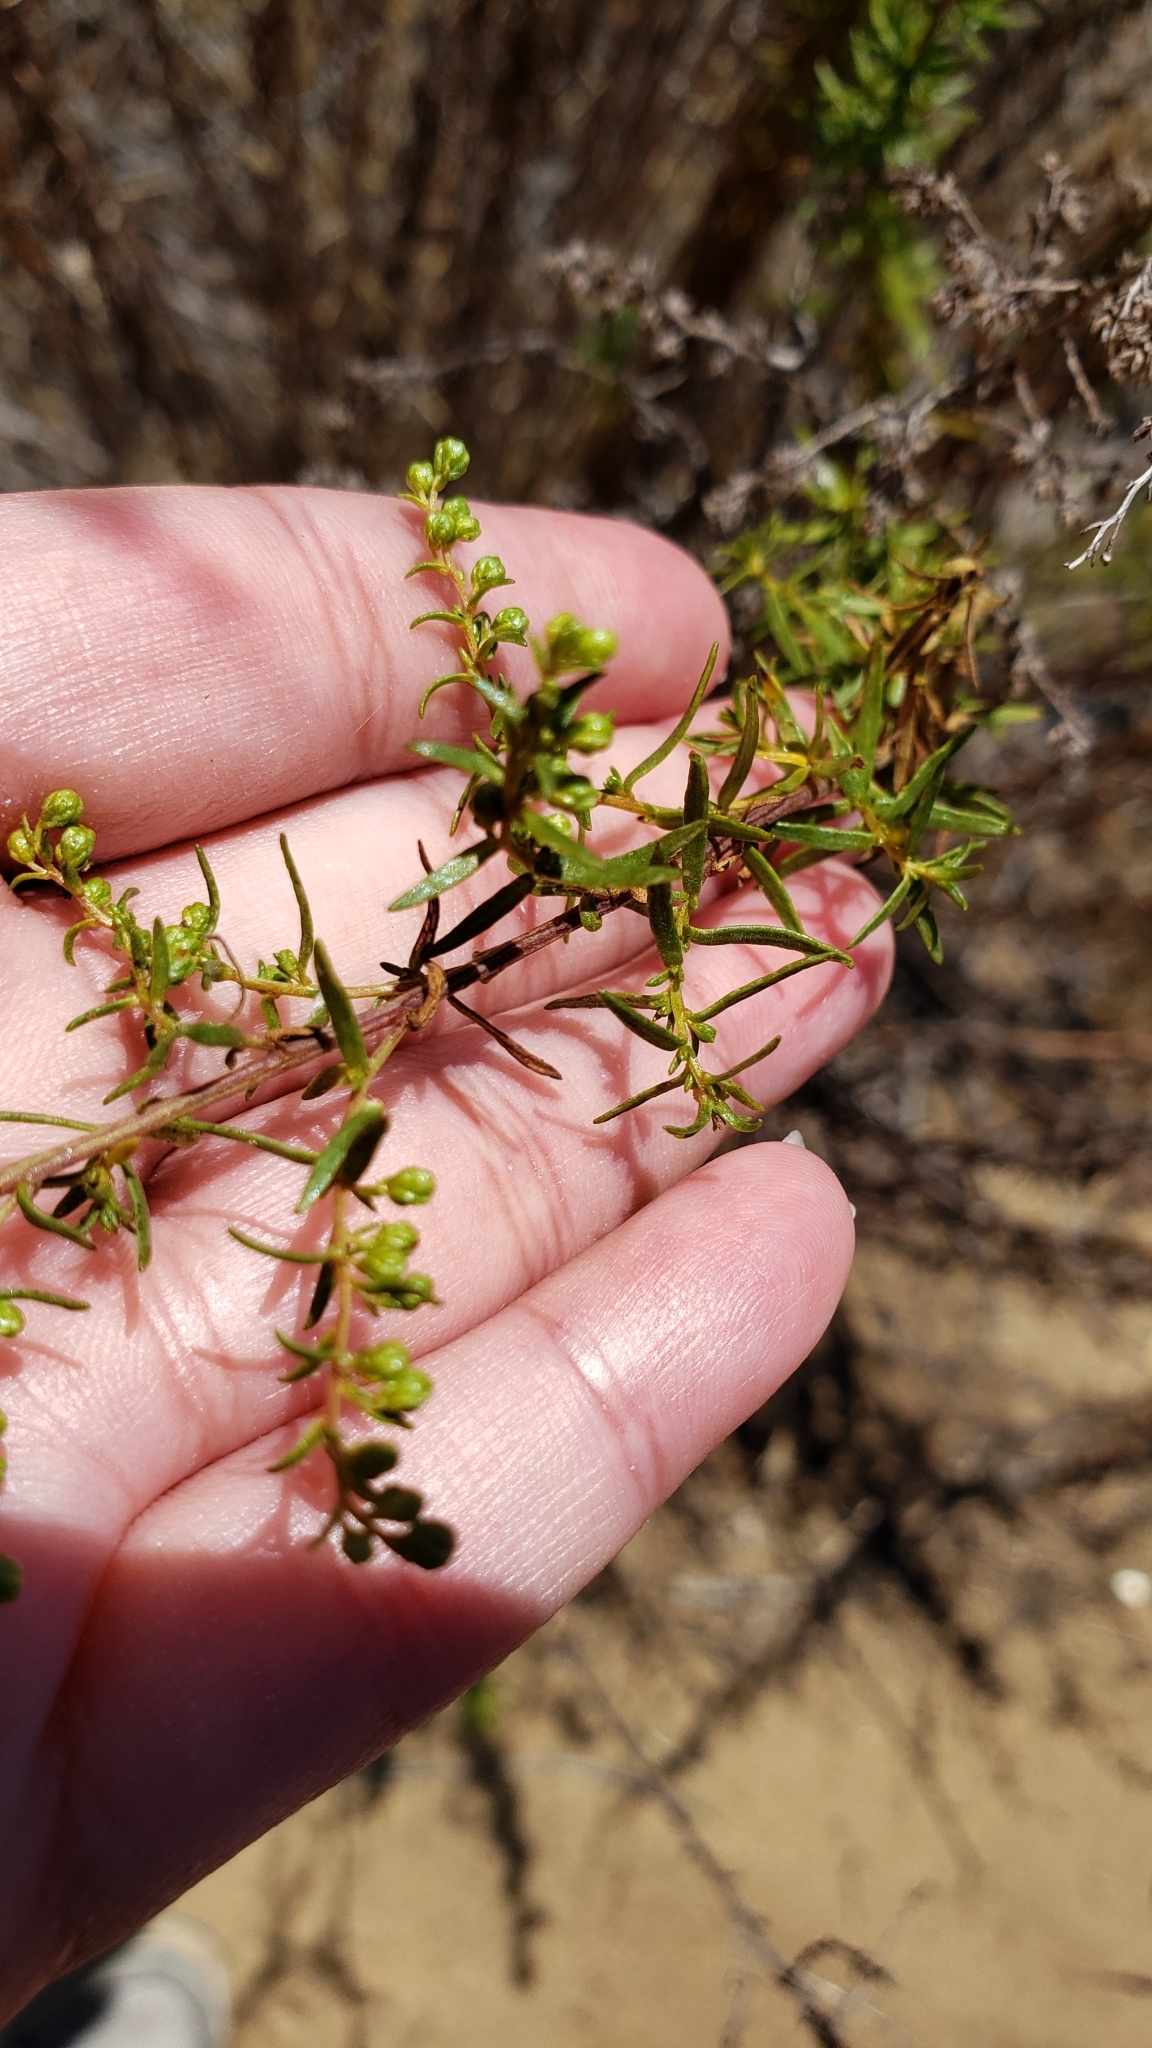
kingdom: Plantae
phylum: Tracheophyta
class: Magnoliopsida
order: Asterales
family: Asteraceae
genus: Artemisia
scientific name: Artemisia dracunculus
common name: Tarragon
